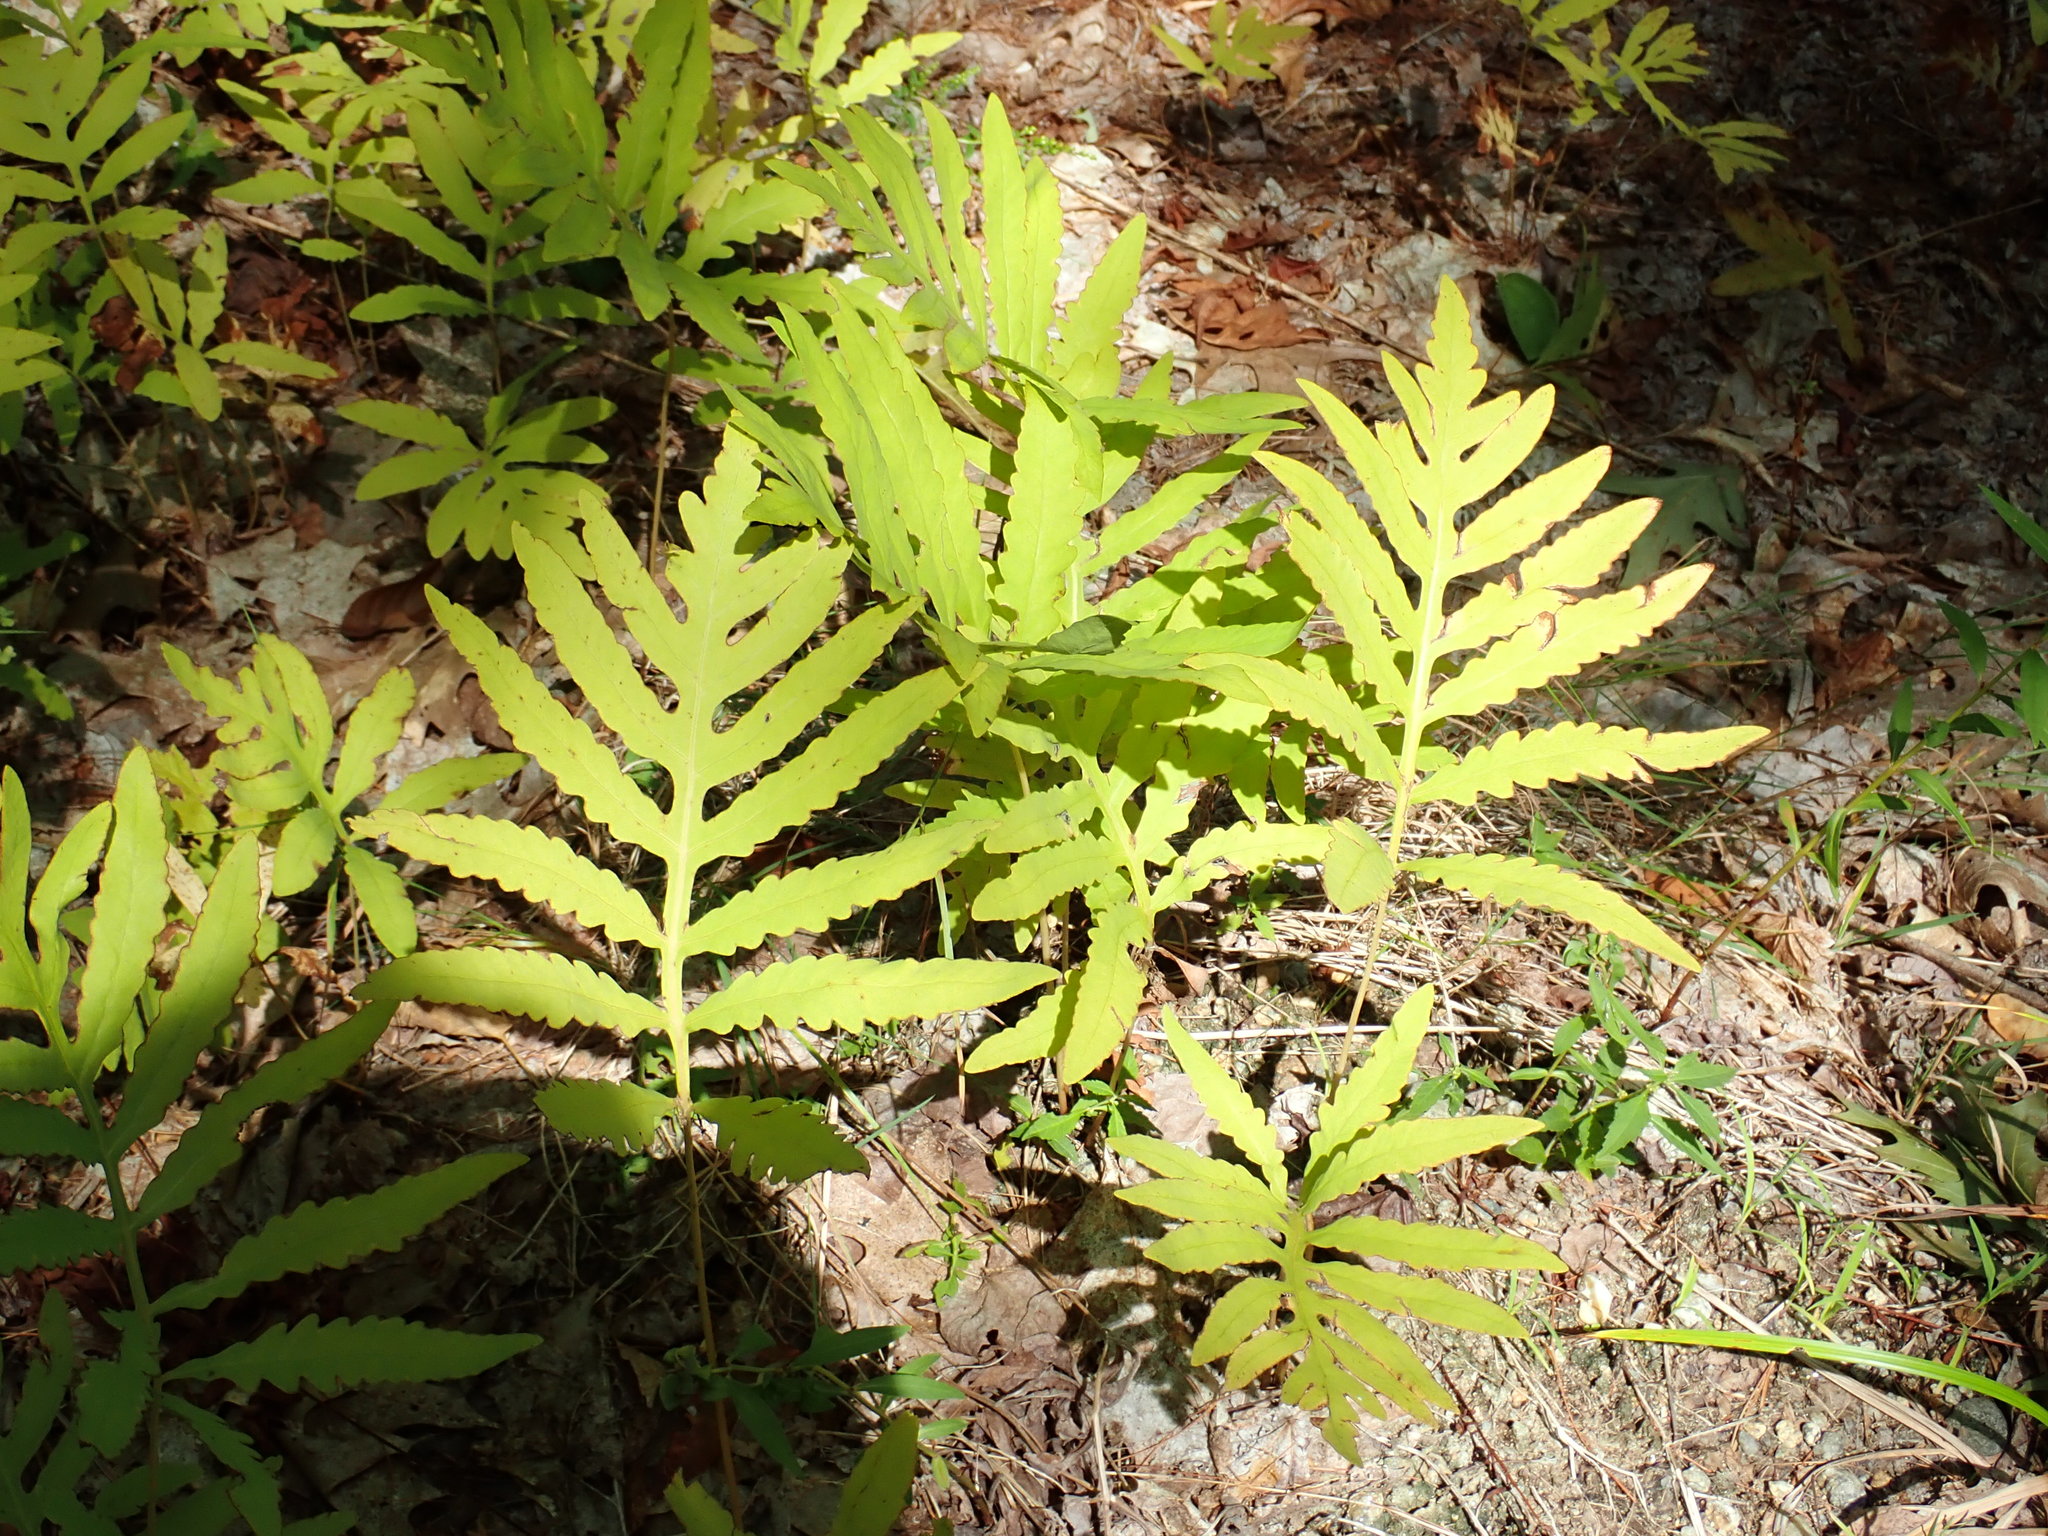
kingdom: Plantae
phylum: Tracheophyta
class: Polypodiopsida
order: Polypodiales
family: Onocleaceae
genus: Onoclea
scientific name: Onoclea sensibilis
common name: Sensitive fern
